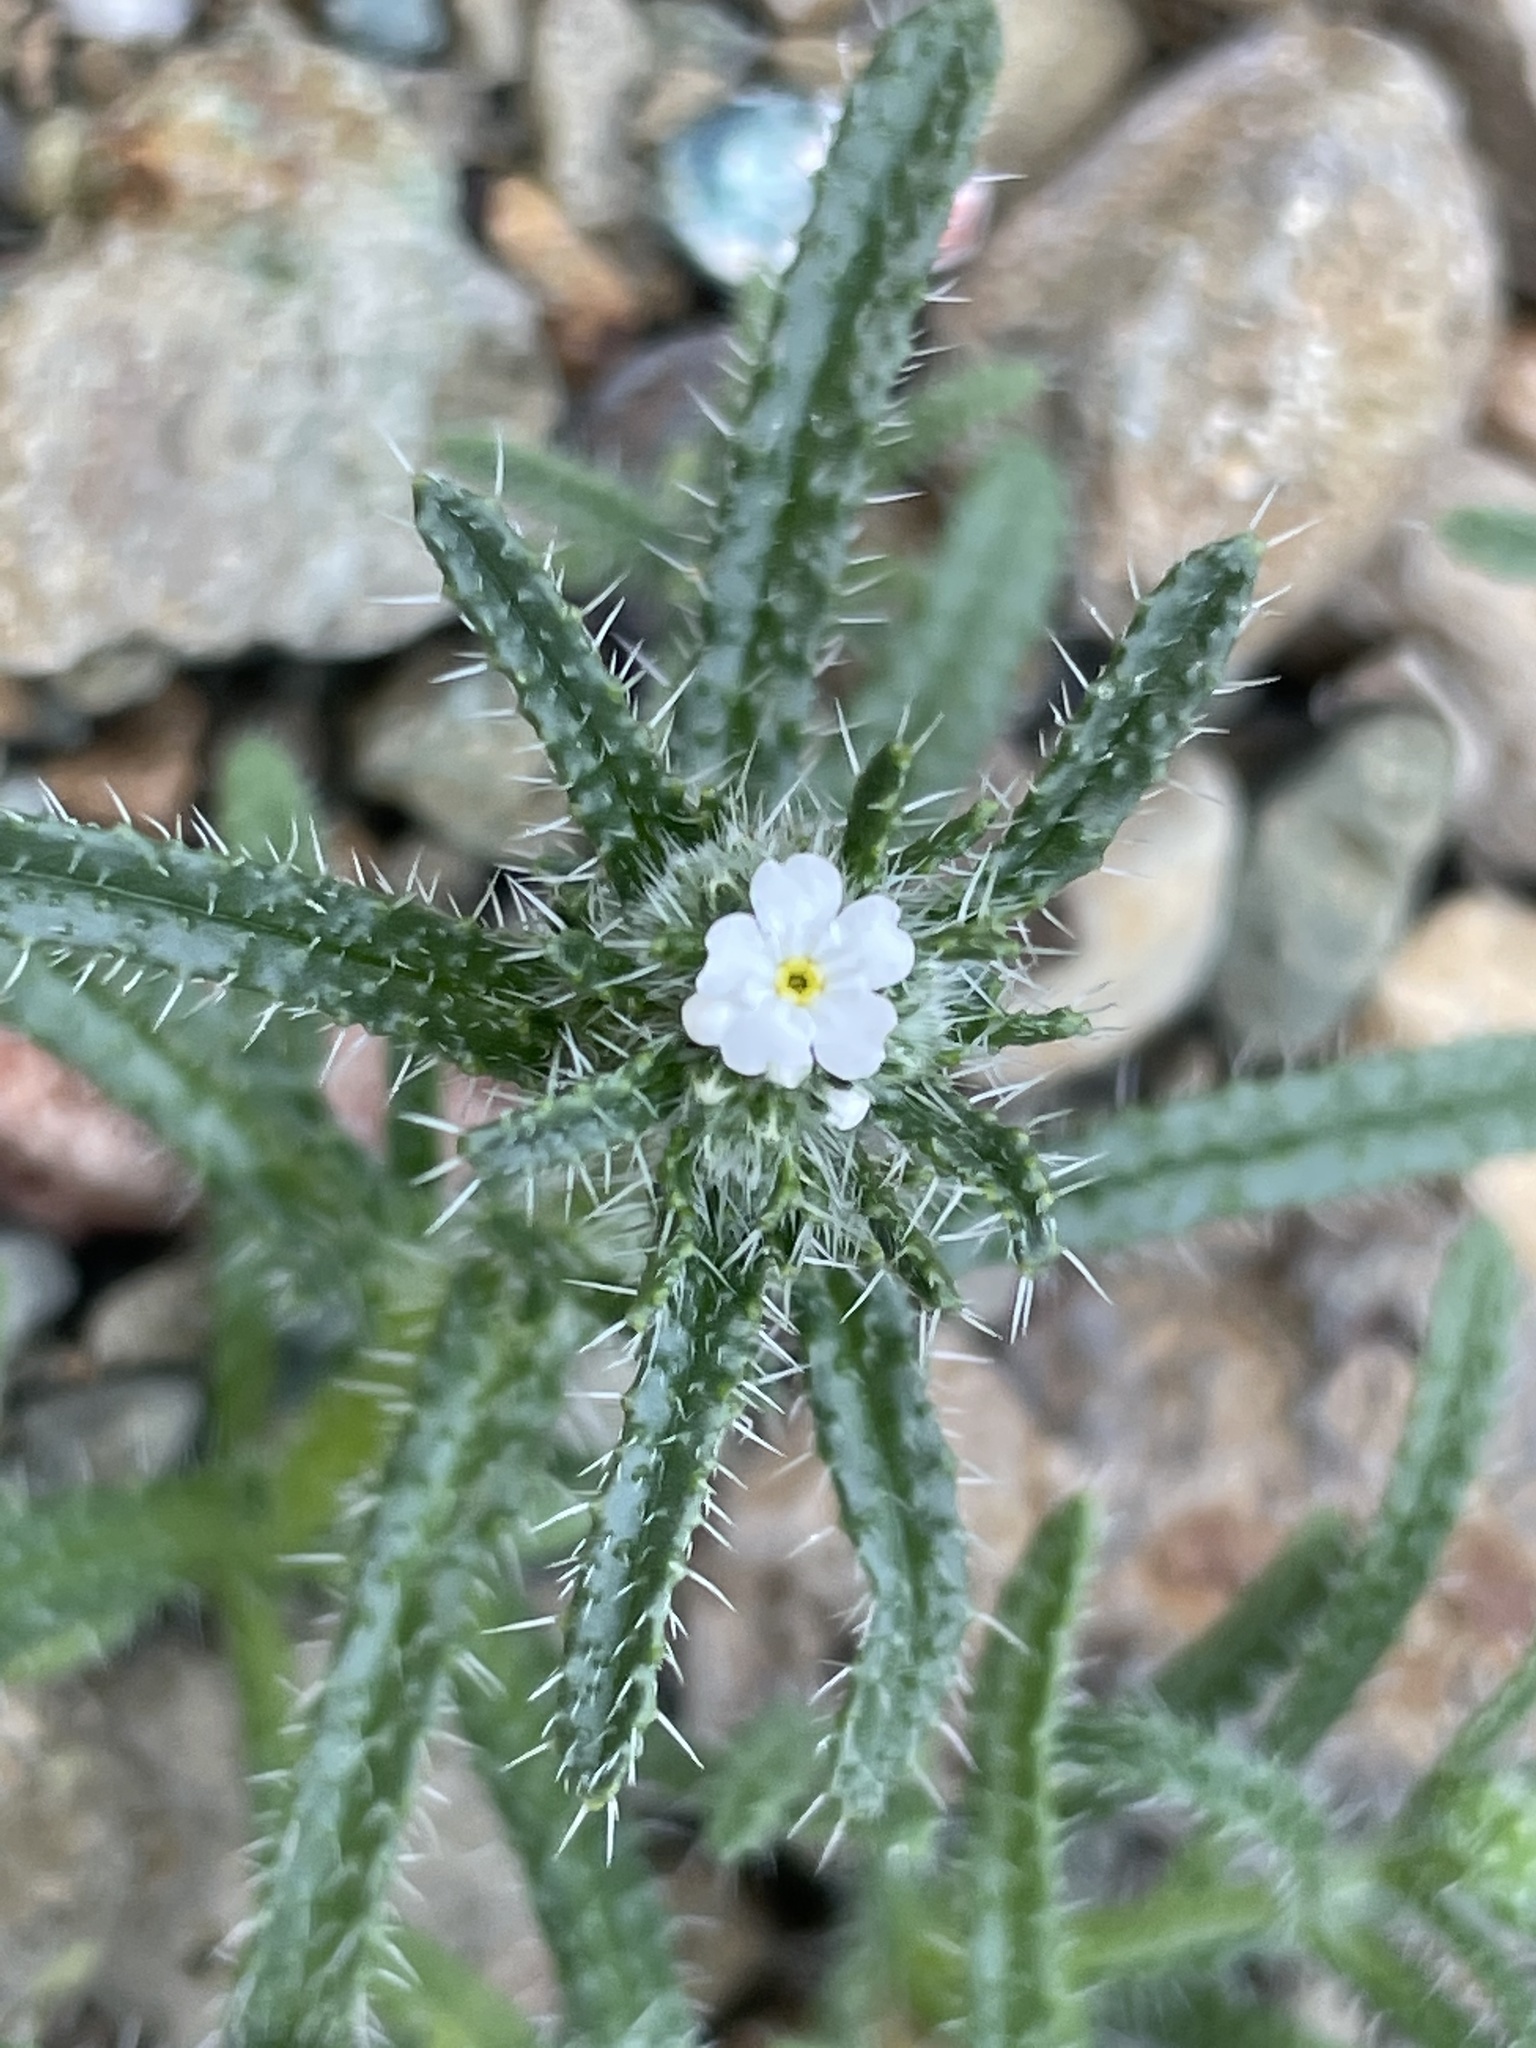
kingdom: Plantae
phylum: Tracheophyta
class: Magnoliopsida
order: Boraginales
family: Boraginaceae
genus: Cryptantha
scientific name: Cryptantha maritima
